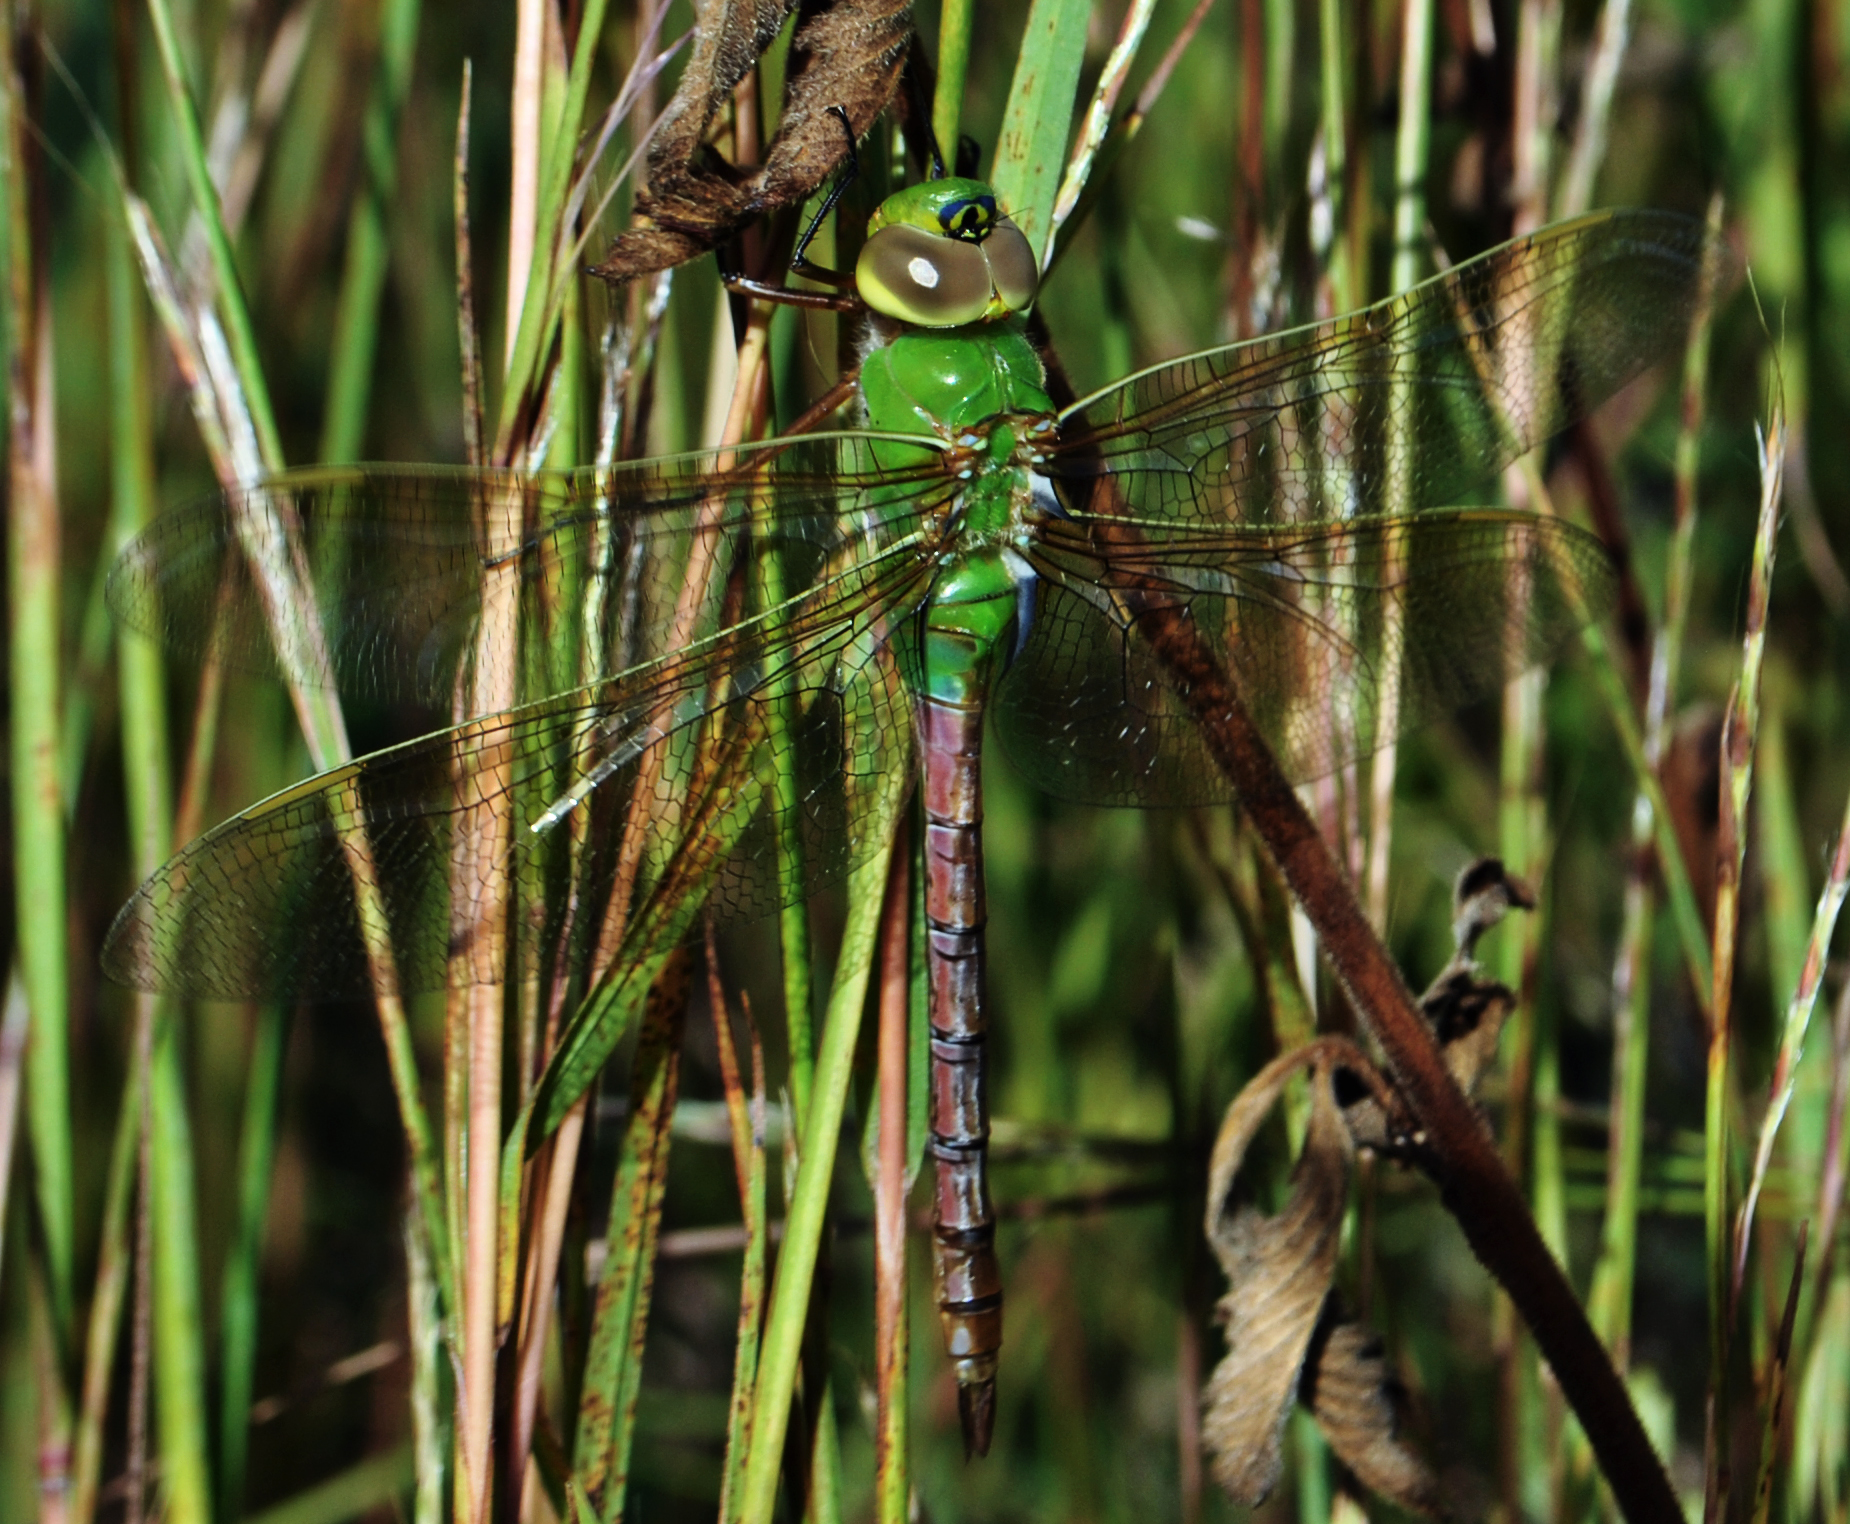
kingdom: Animalia
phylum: Arthropoda
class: Insecta
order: Odonata
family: Aeshnidae
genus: Anax
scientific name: Anax junius
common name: Common green darner
